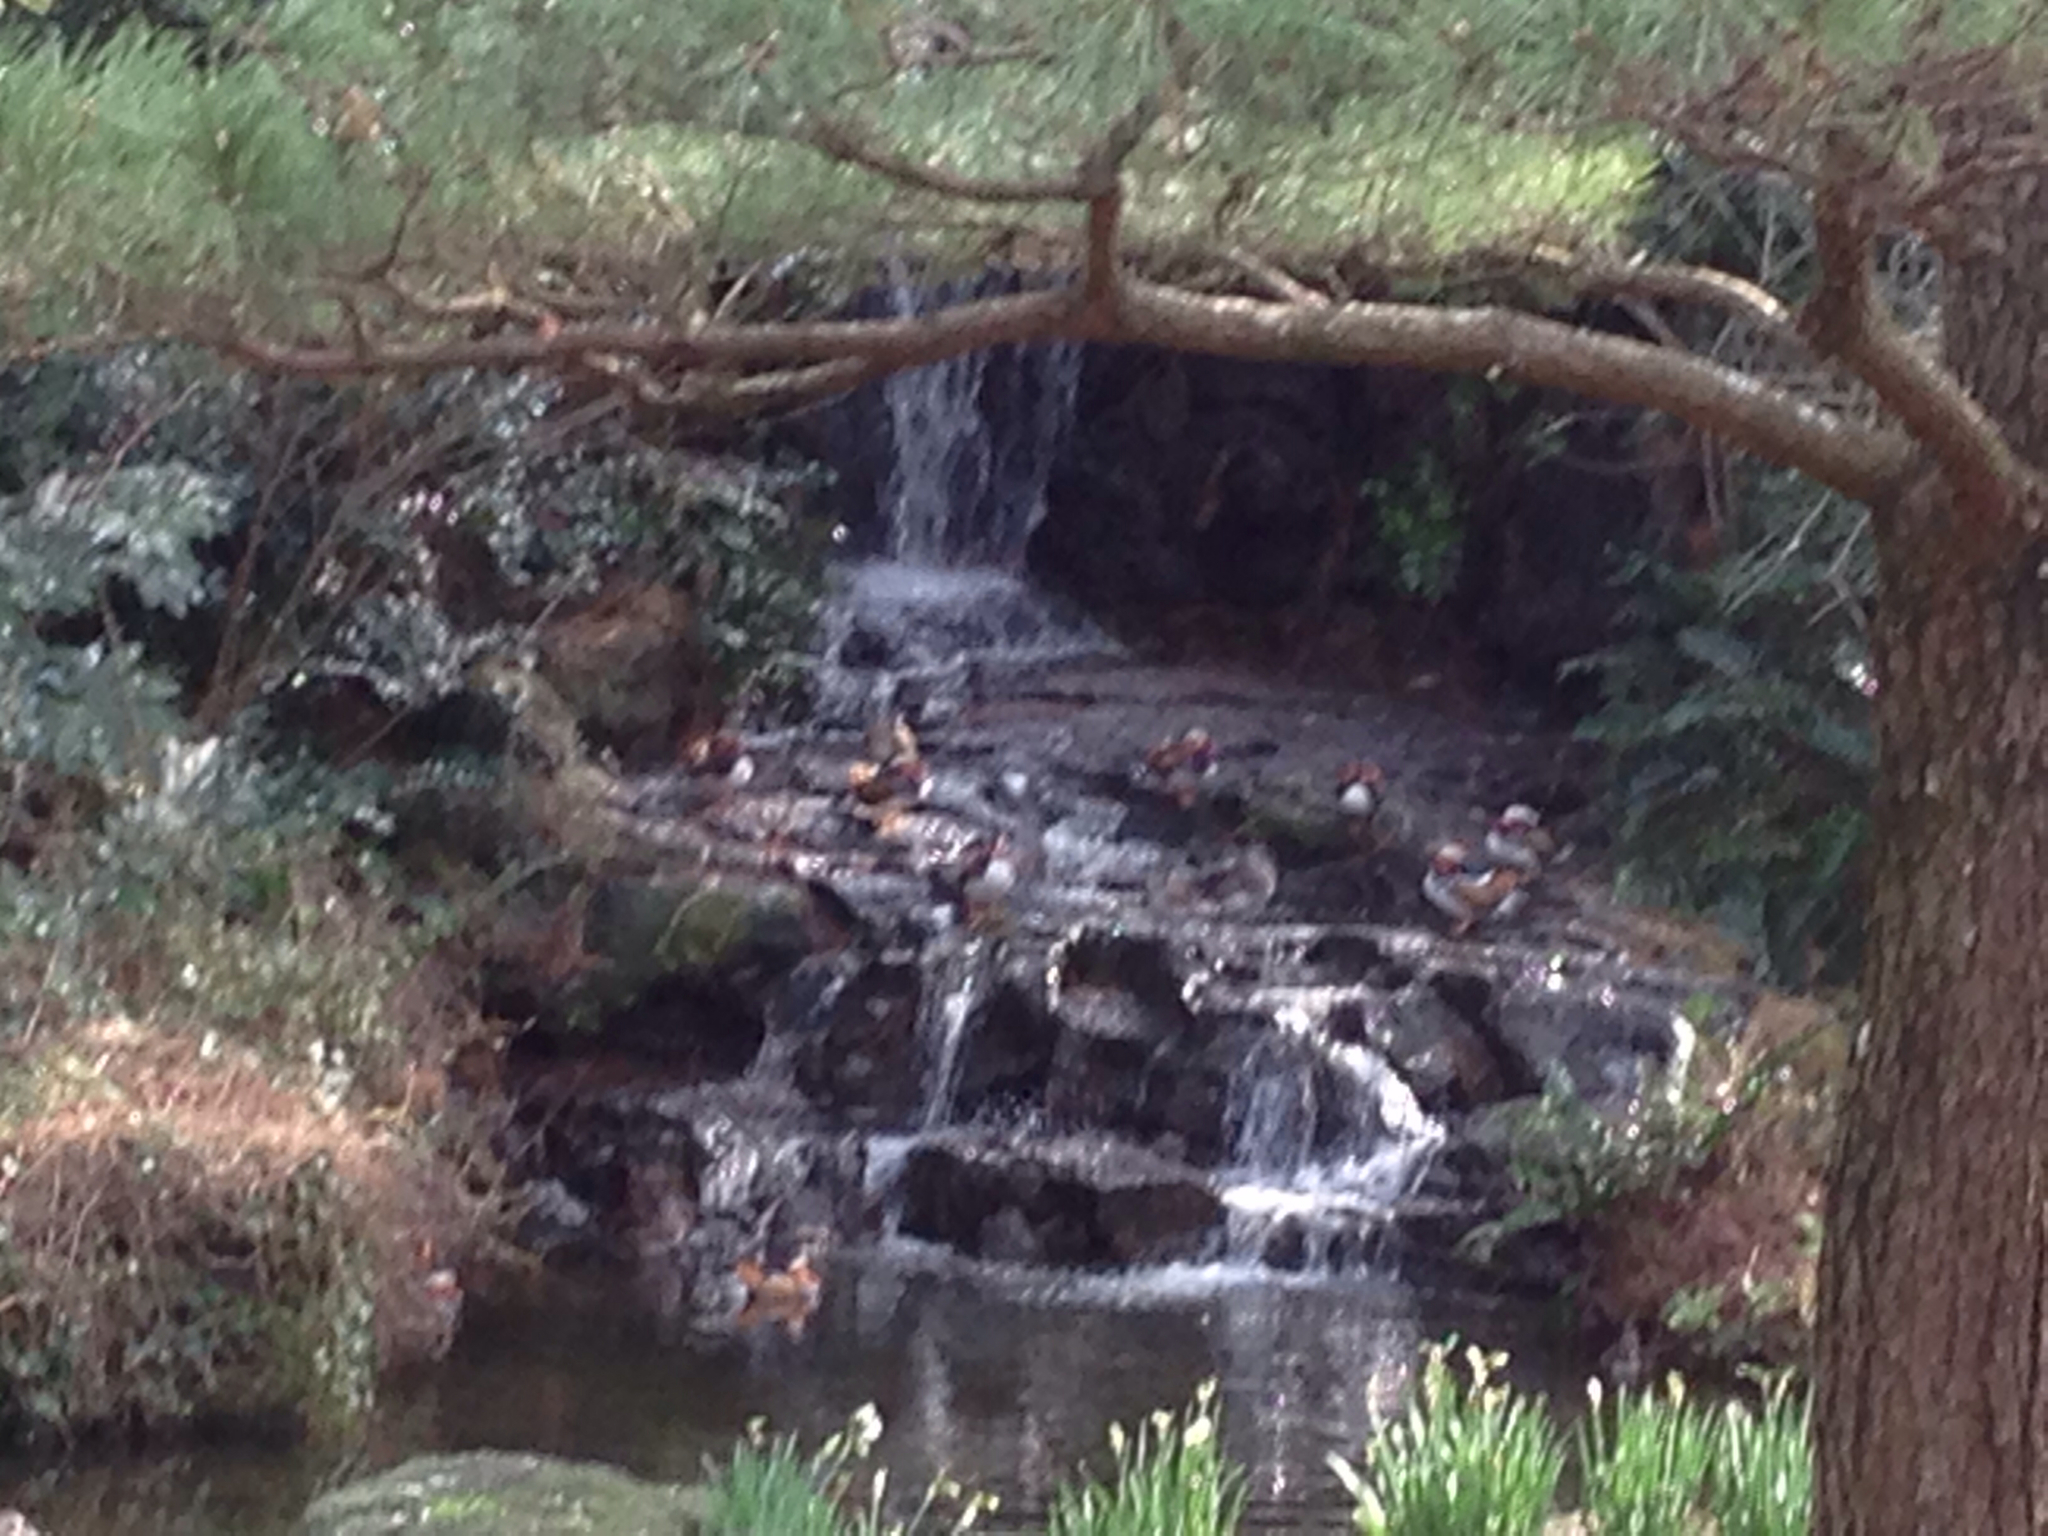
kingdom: Animalia
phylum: Chordata
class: Aves
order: Anseriformes
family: Anatidae
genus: Aix
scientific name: Aix galericulata
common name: Mandarin duck
